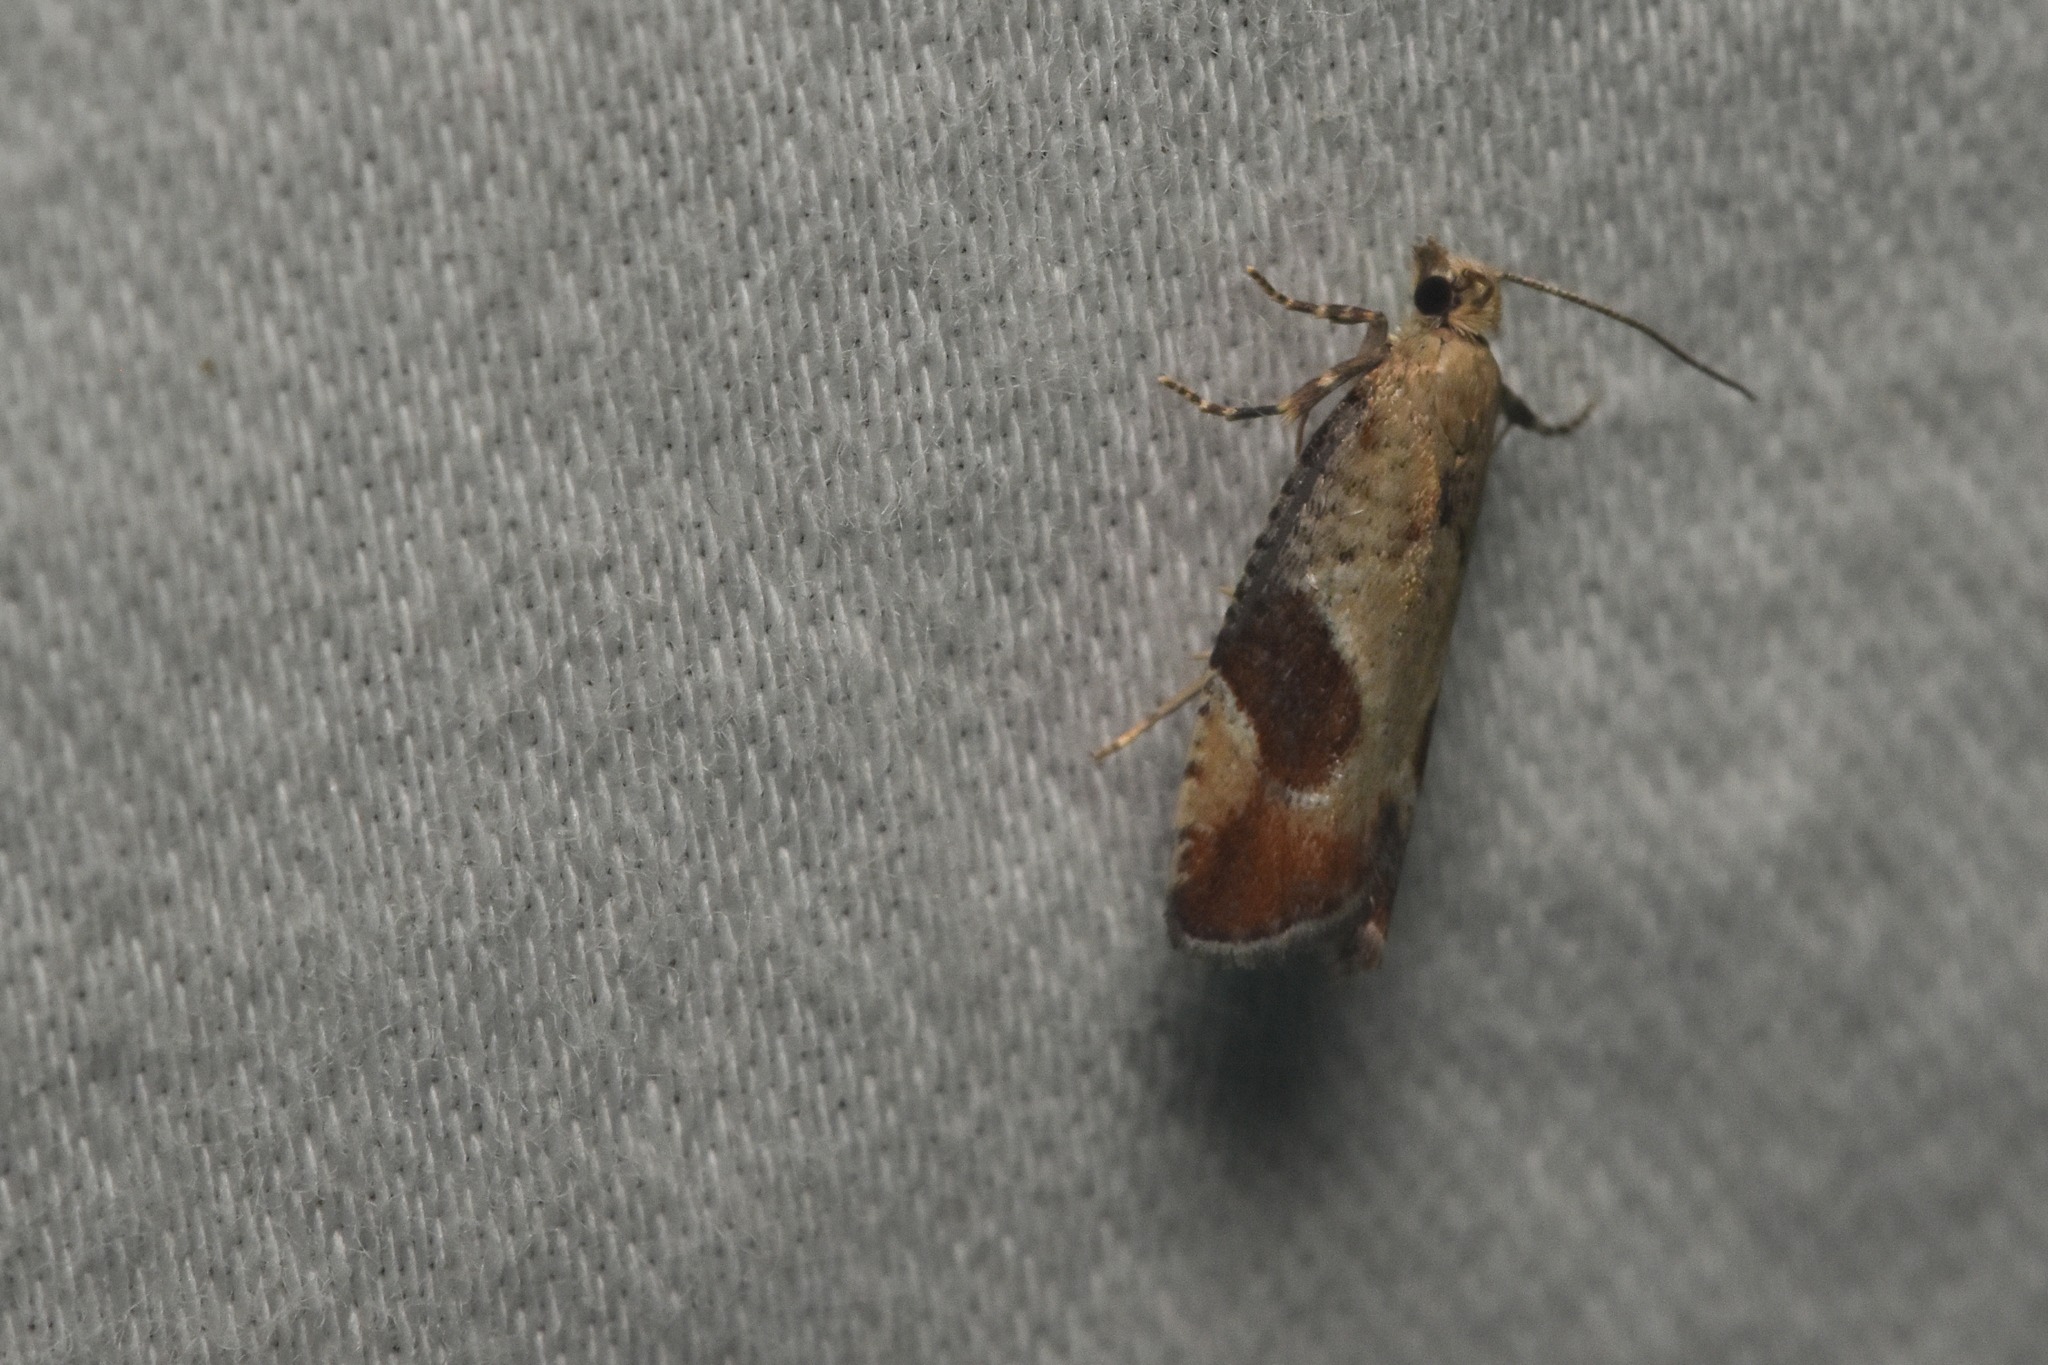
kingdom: Animalia
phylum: Arthropoda
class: Insecta
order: Lepidoptera
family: Tortricidae
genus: Epinotia
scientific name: Epinotia medioplagata
